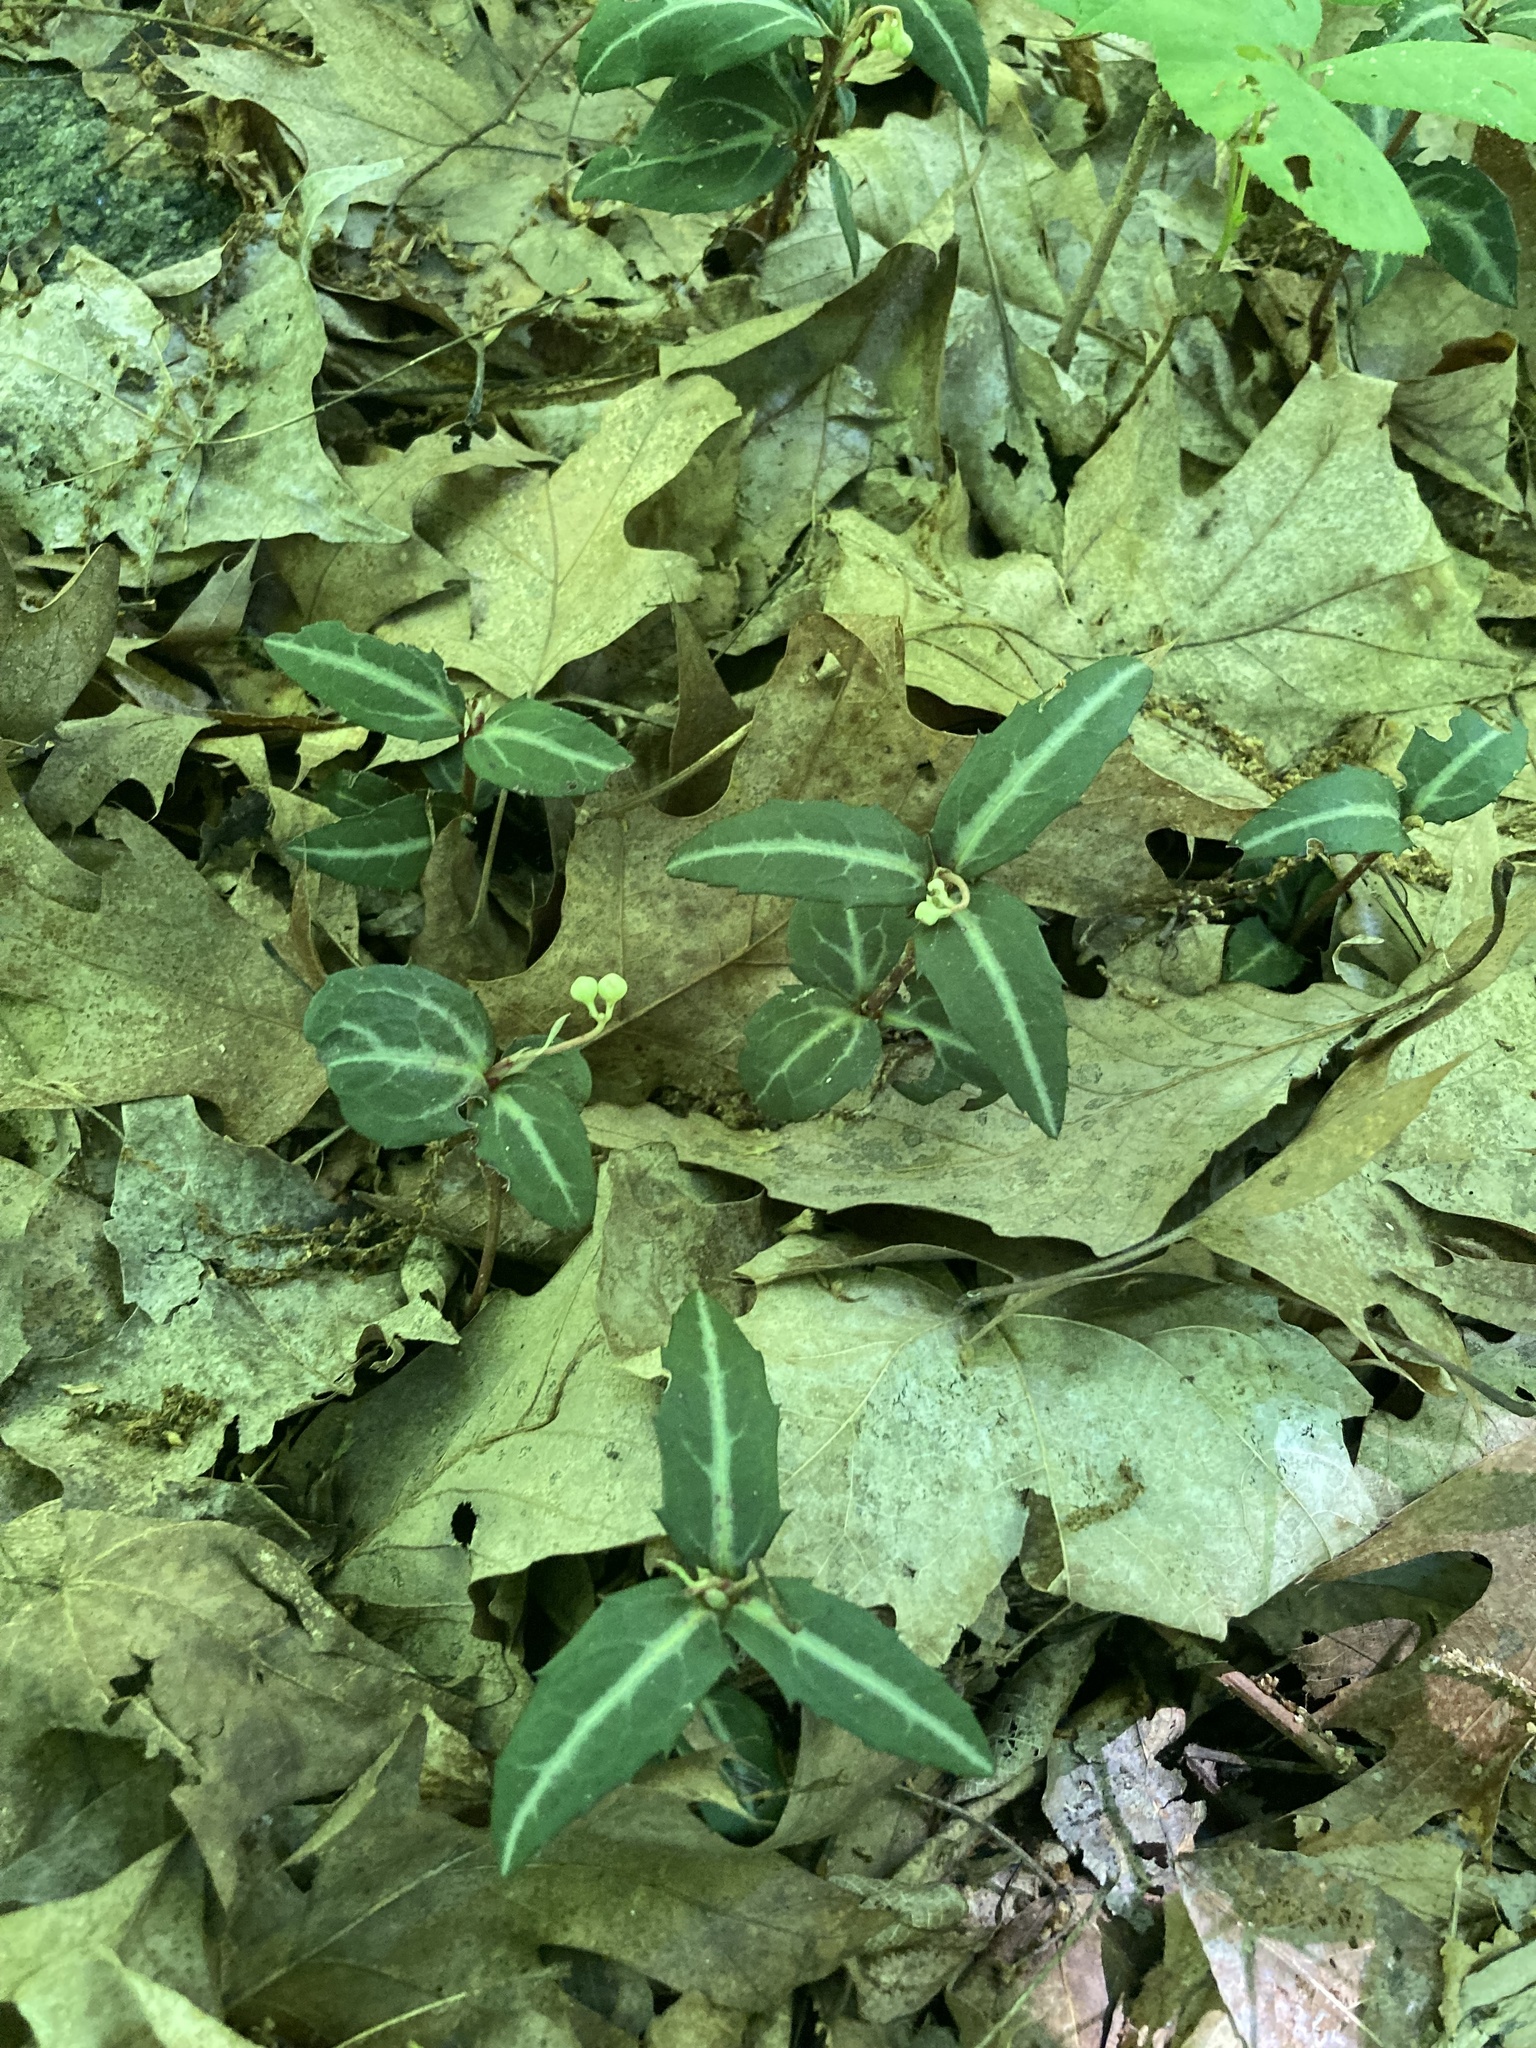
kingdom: Plantae
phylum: Tracheophyta
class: Magnoliopsida
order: Ericales
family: Ericaceae
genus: Chimaphila
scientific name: Chimaphila maculata
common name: Spotted pipsissewa
